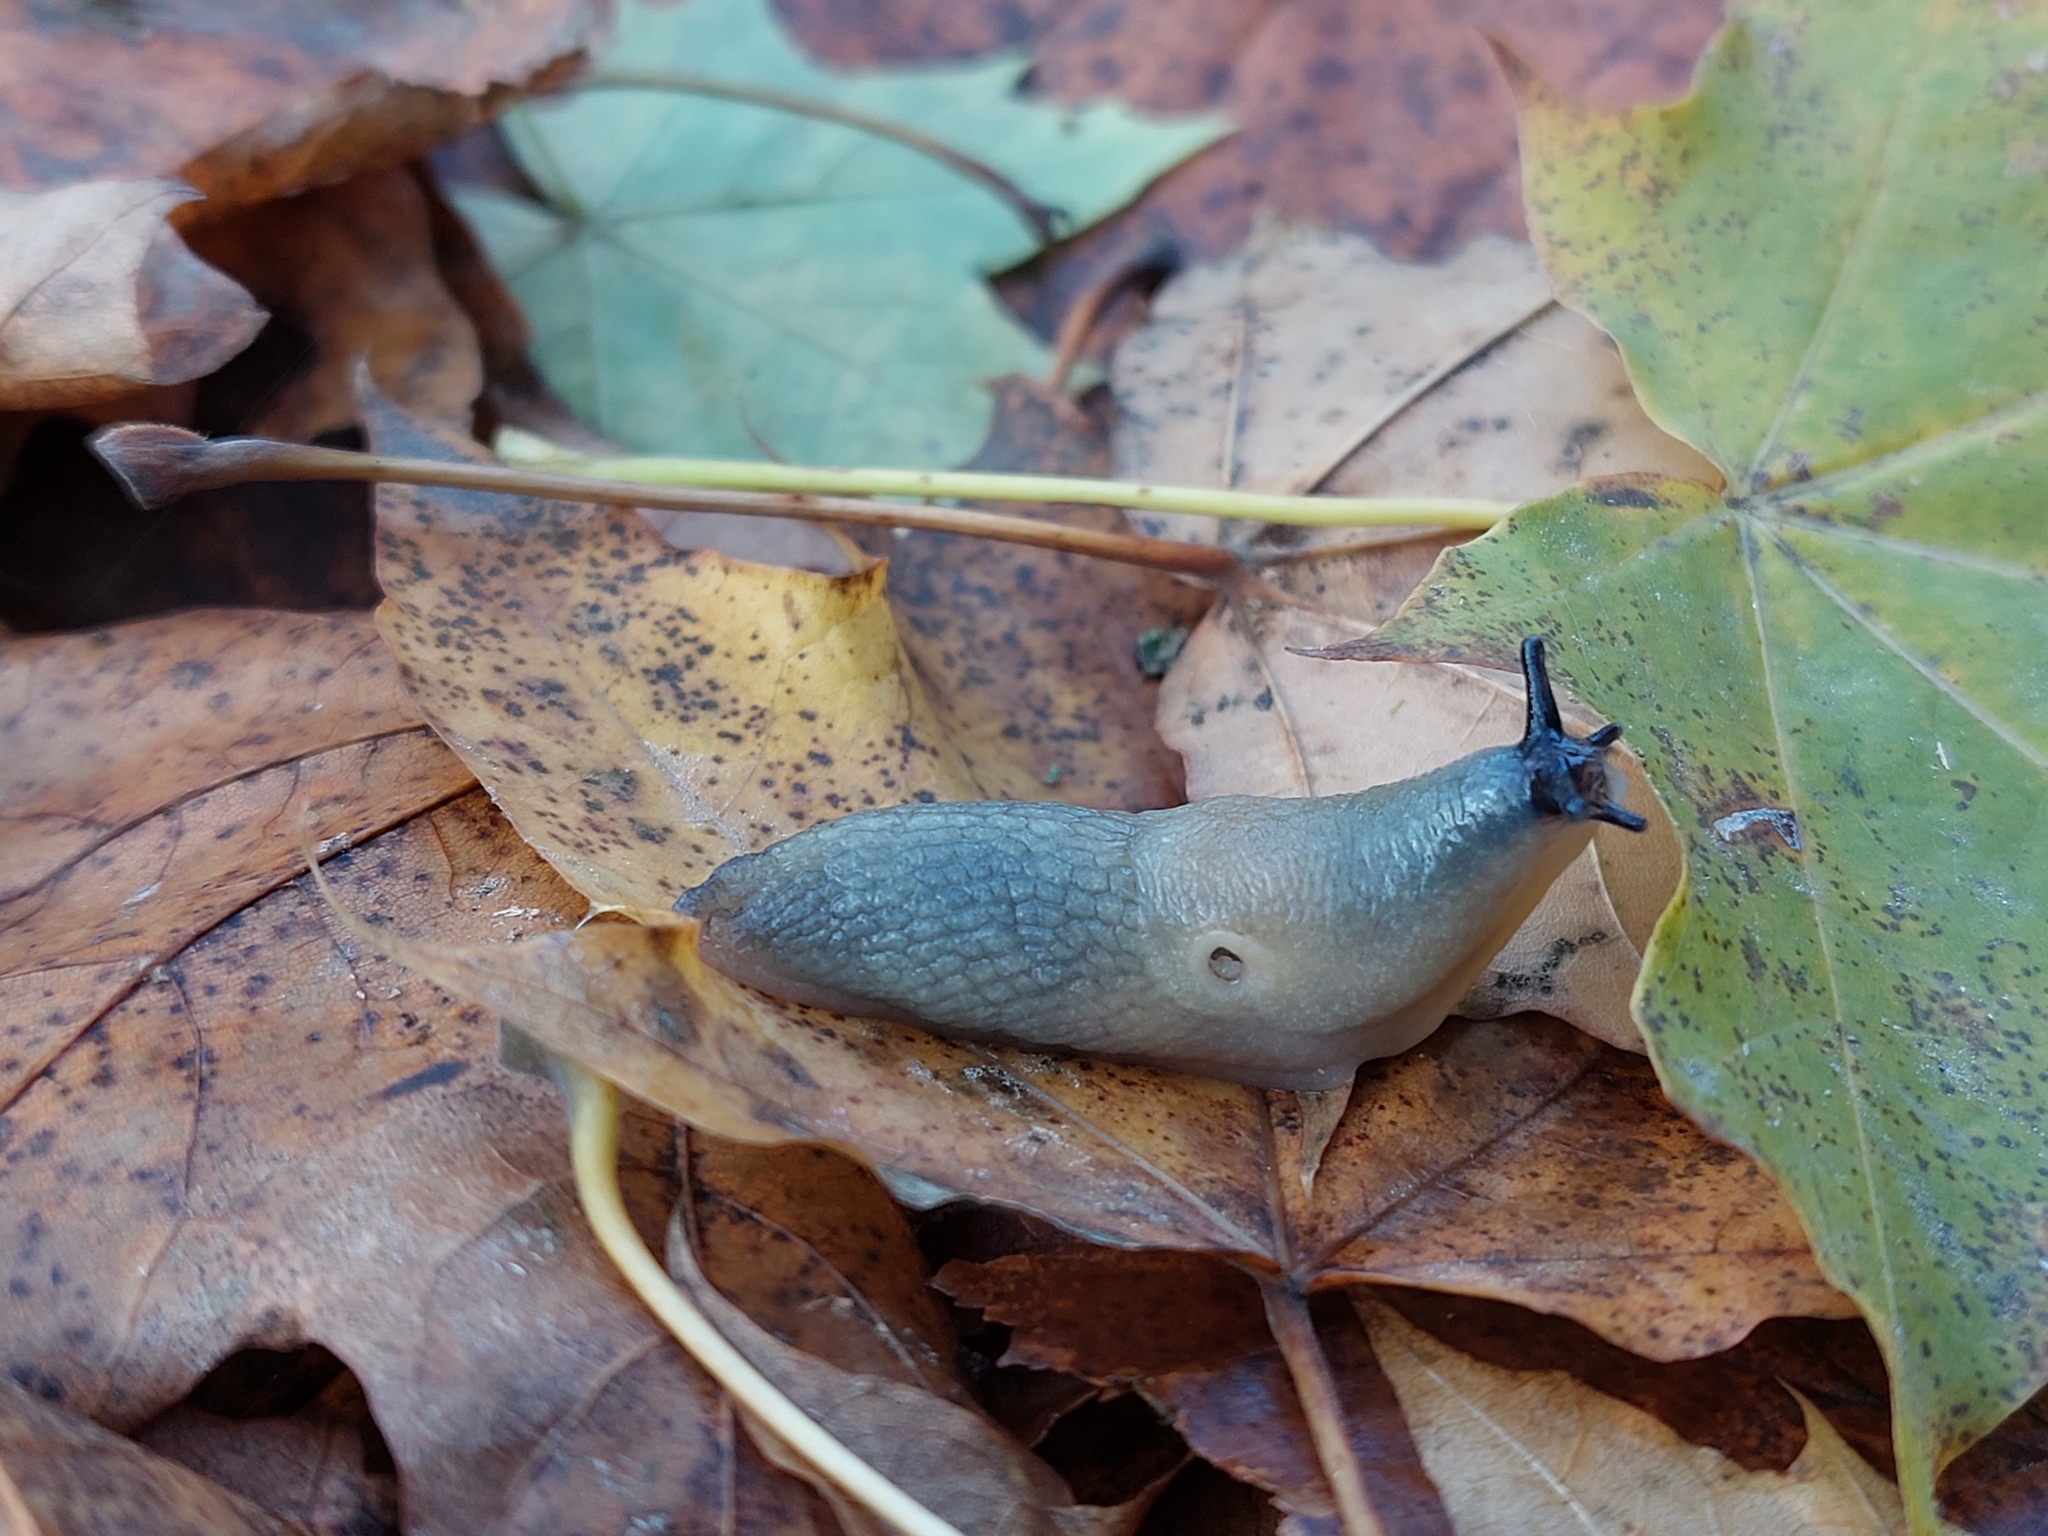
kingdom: Animalia
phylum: Mollusca
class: Gastropoda
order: Stylommatophora
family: Agriolimacidae
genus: Krynickillus
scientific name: Krynickillus melanocephalus
